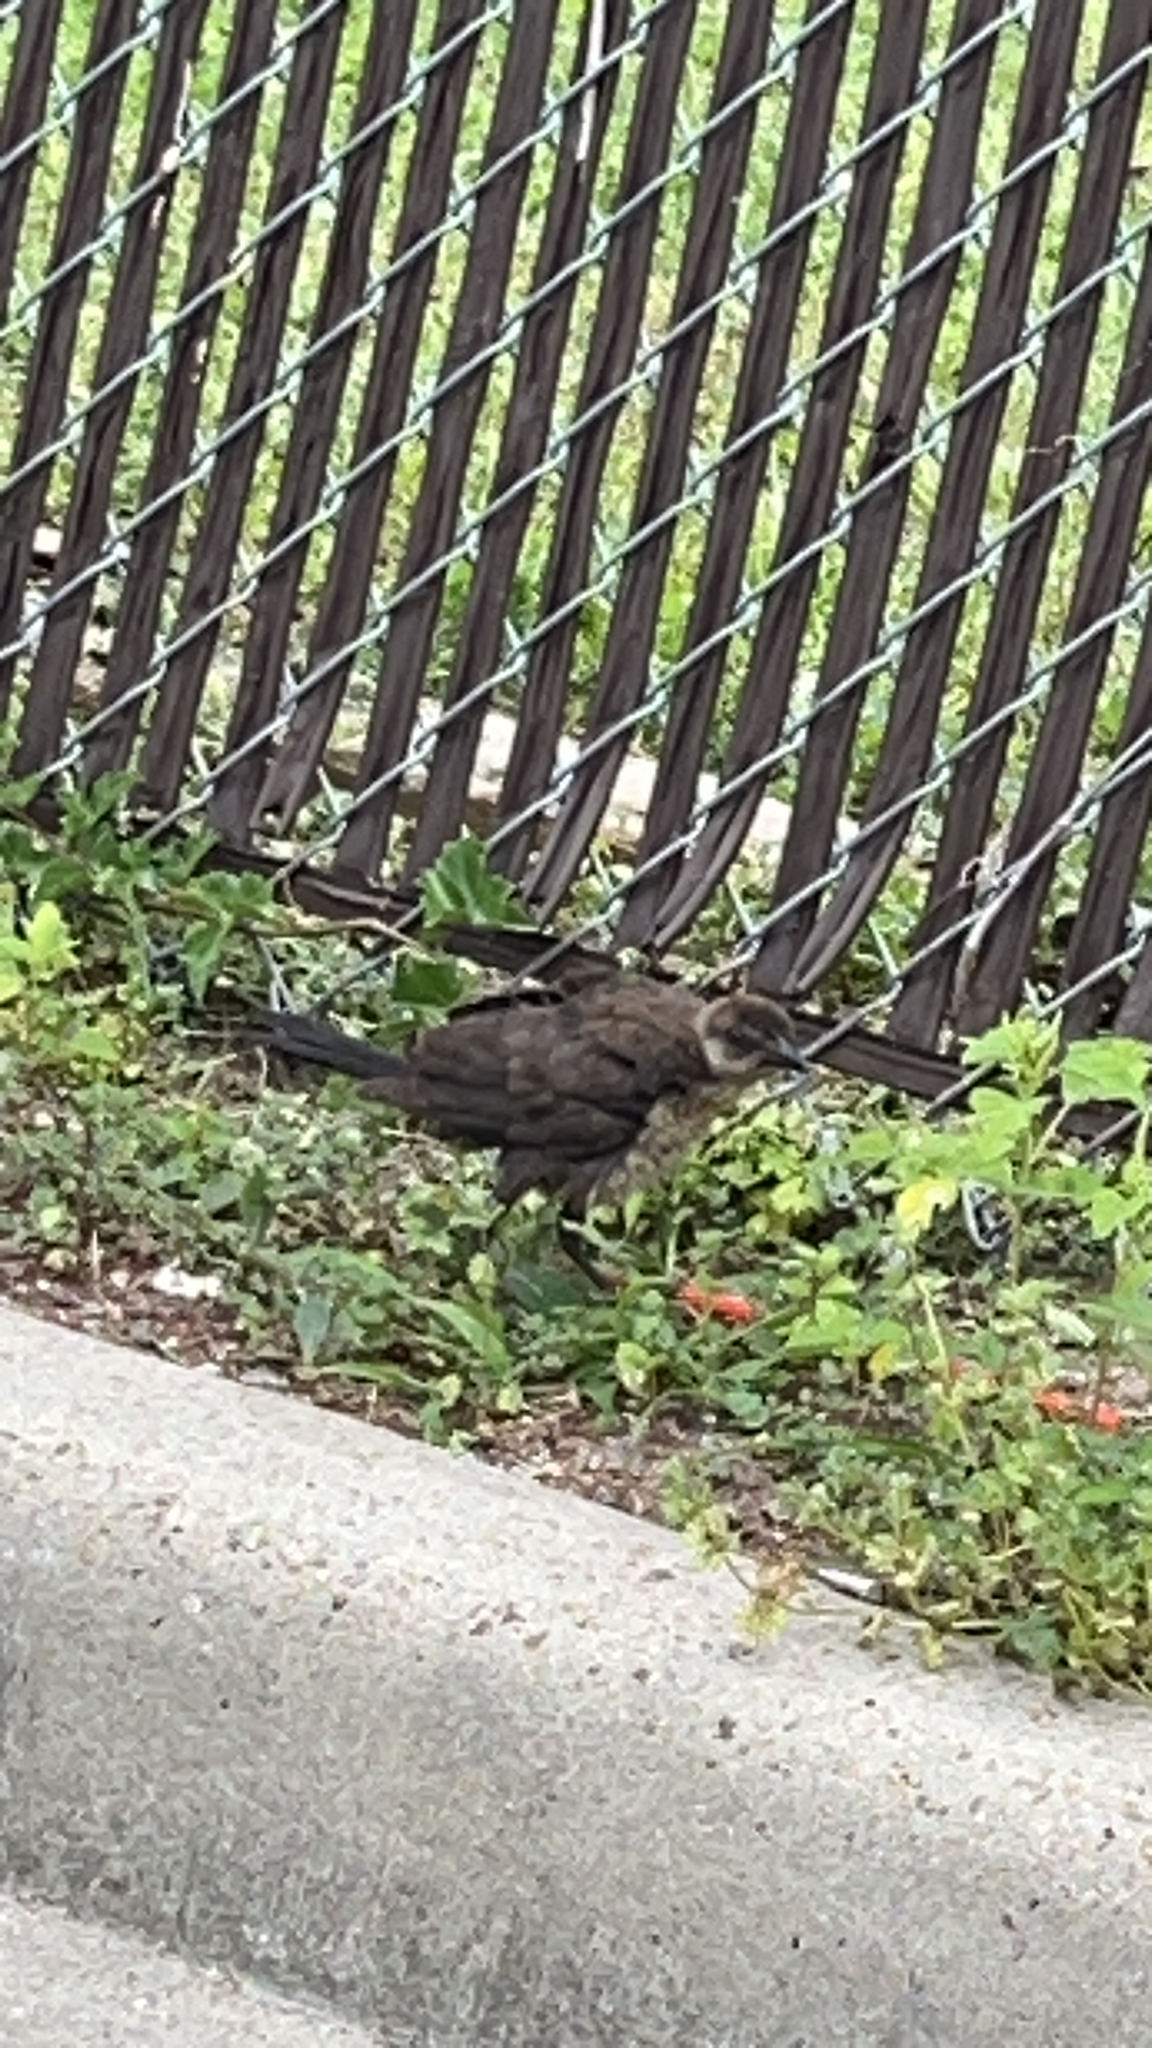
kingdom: Animalia
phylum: Chordata
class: Aves
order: Passeriformes
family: Icteridae
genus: Quiscalus
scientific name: Quiscalus mexicanus
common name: Great-tailed grackle
